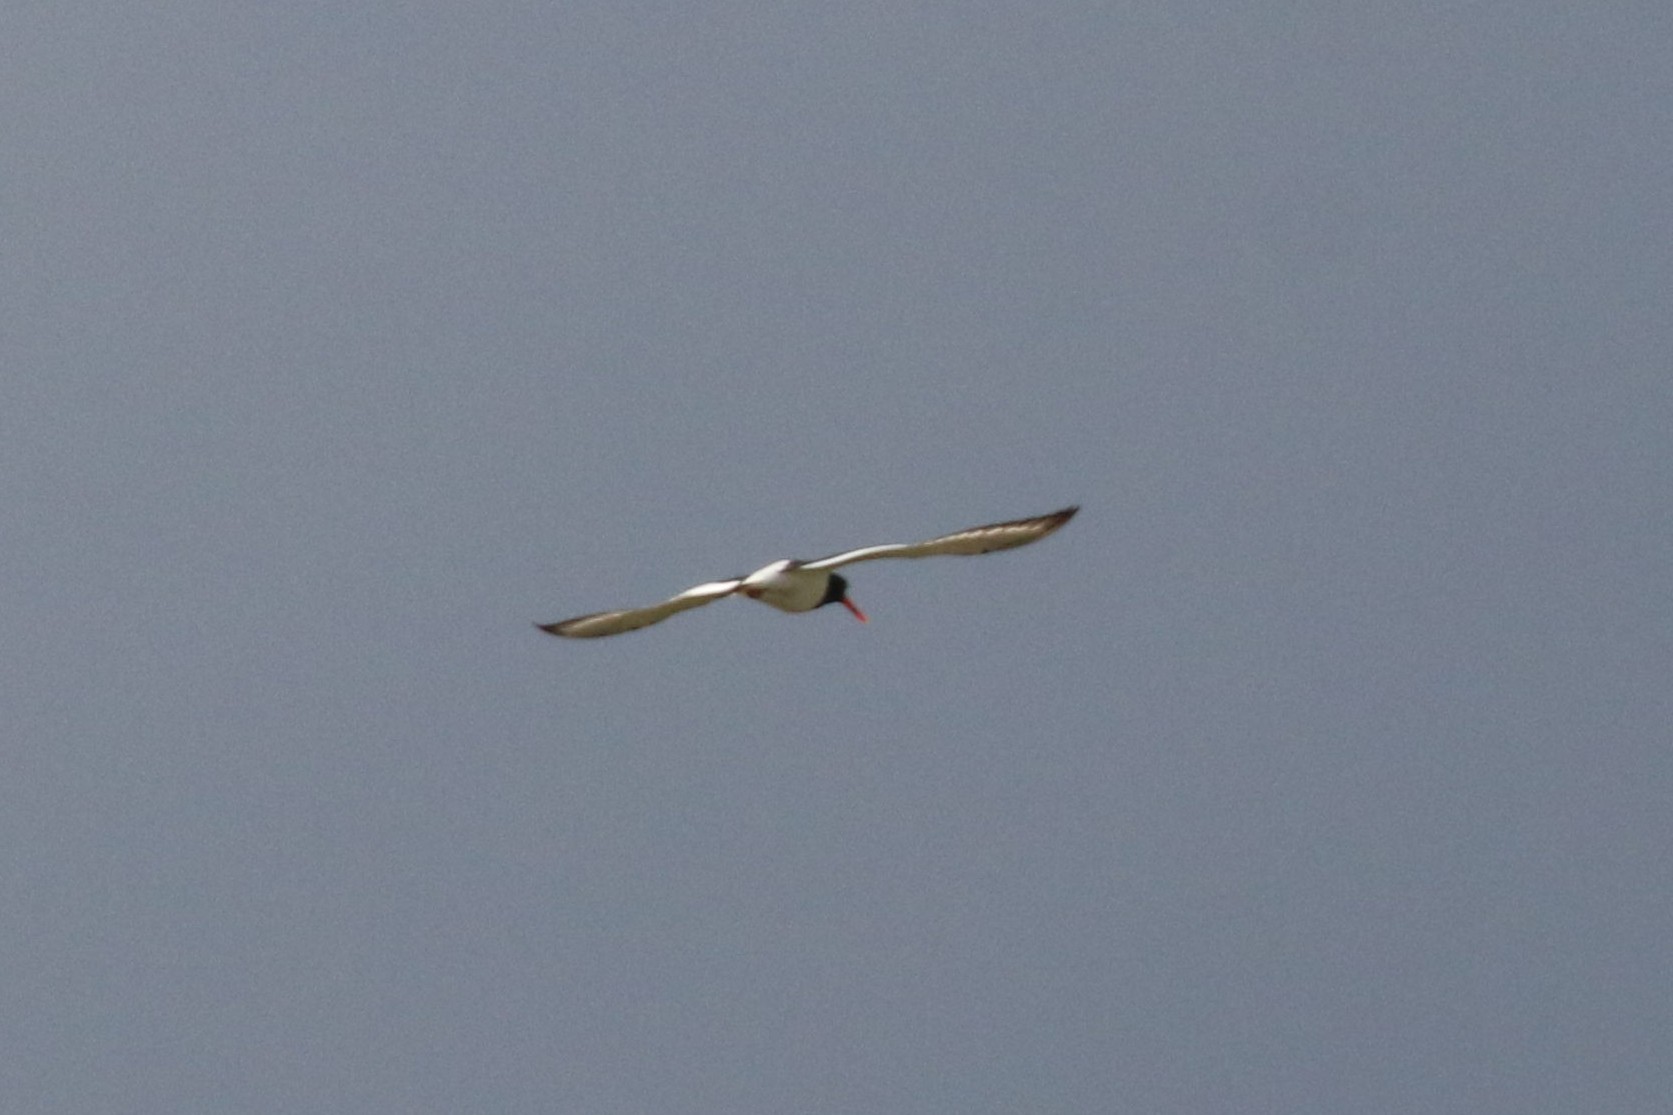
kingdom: Animalia
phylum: Chordata
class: Aves
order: Charadriiformes
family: Haematopodidae
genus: Haematopus
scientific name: Haematopus ostralegus
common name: Eurasian oystercatcher
